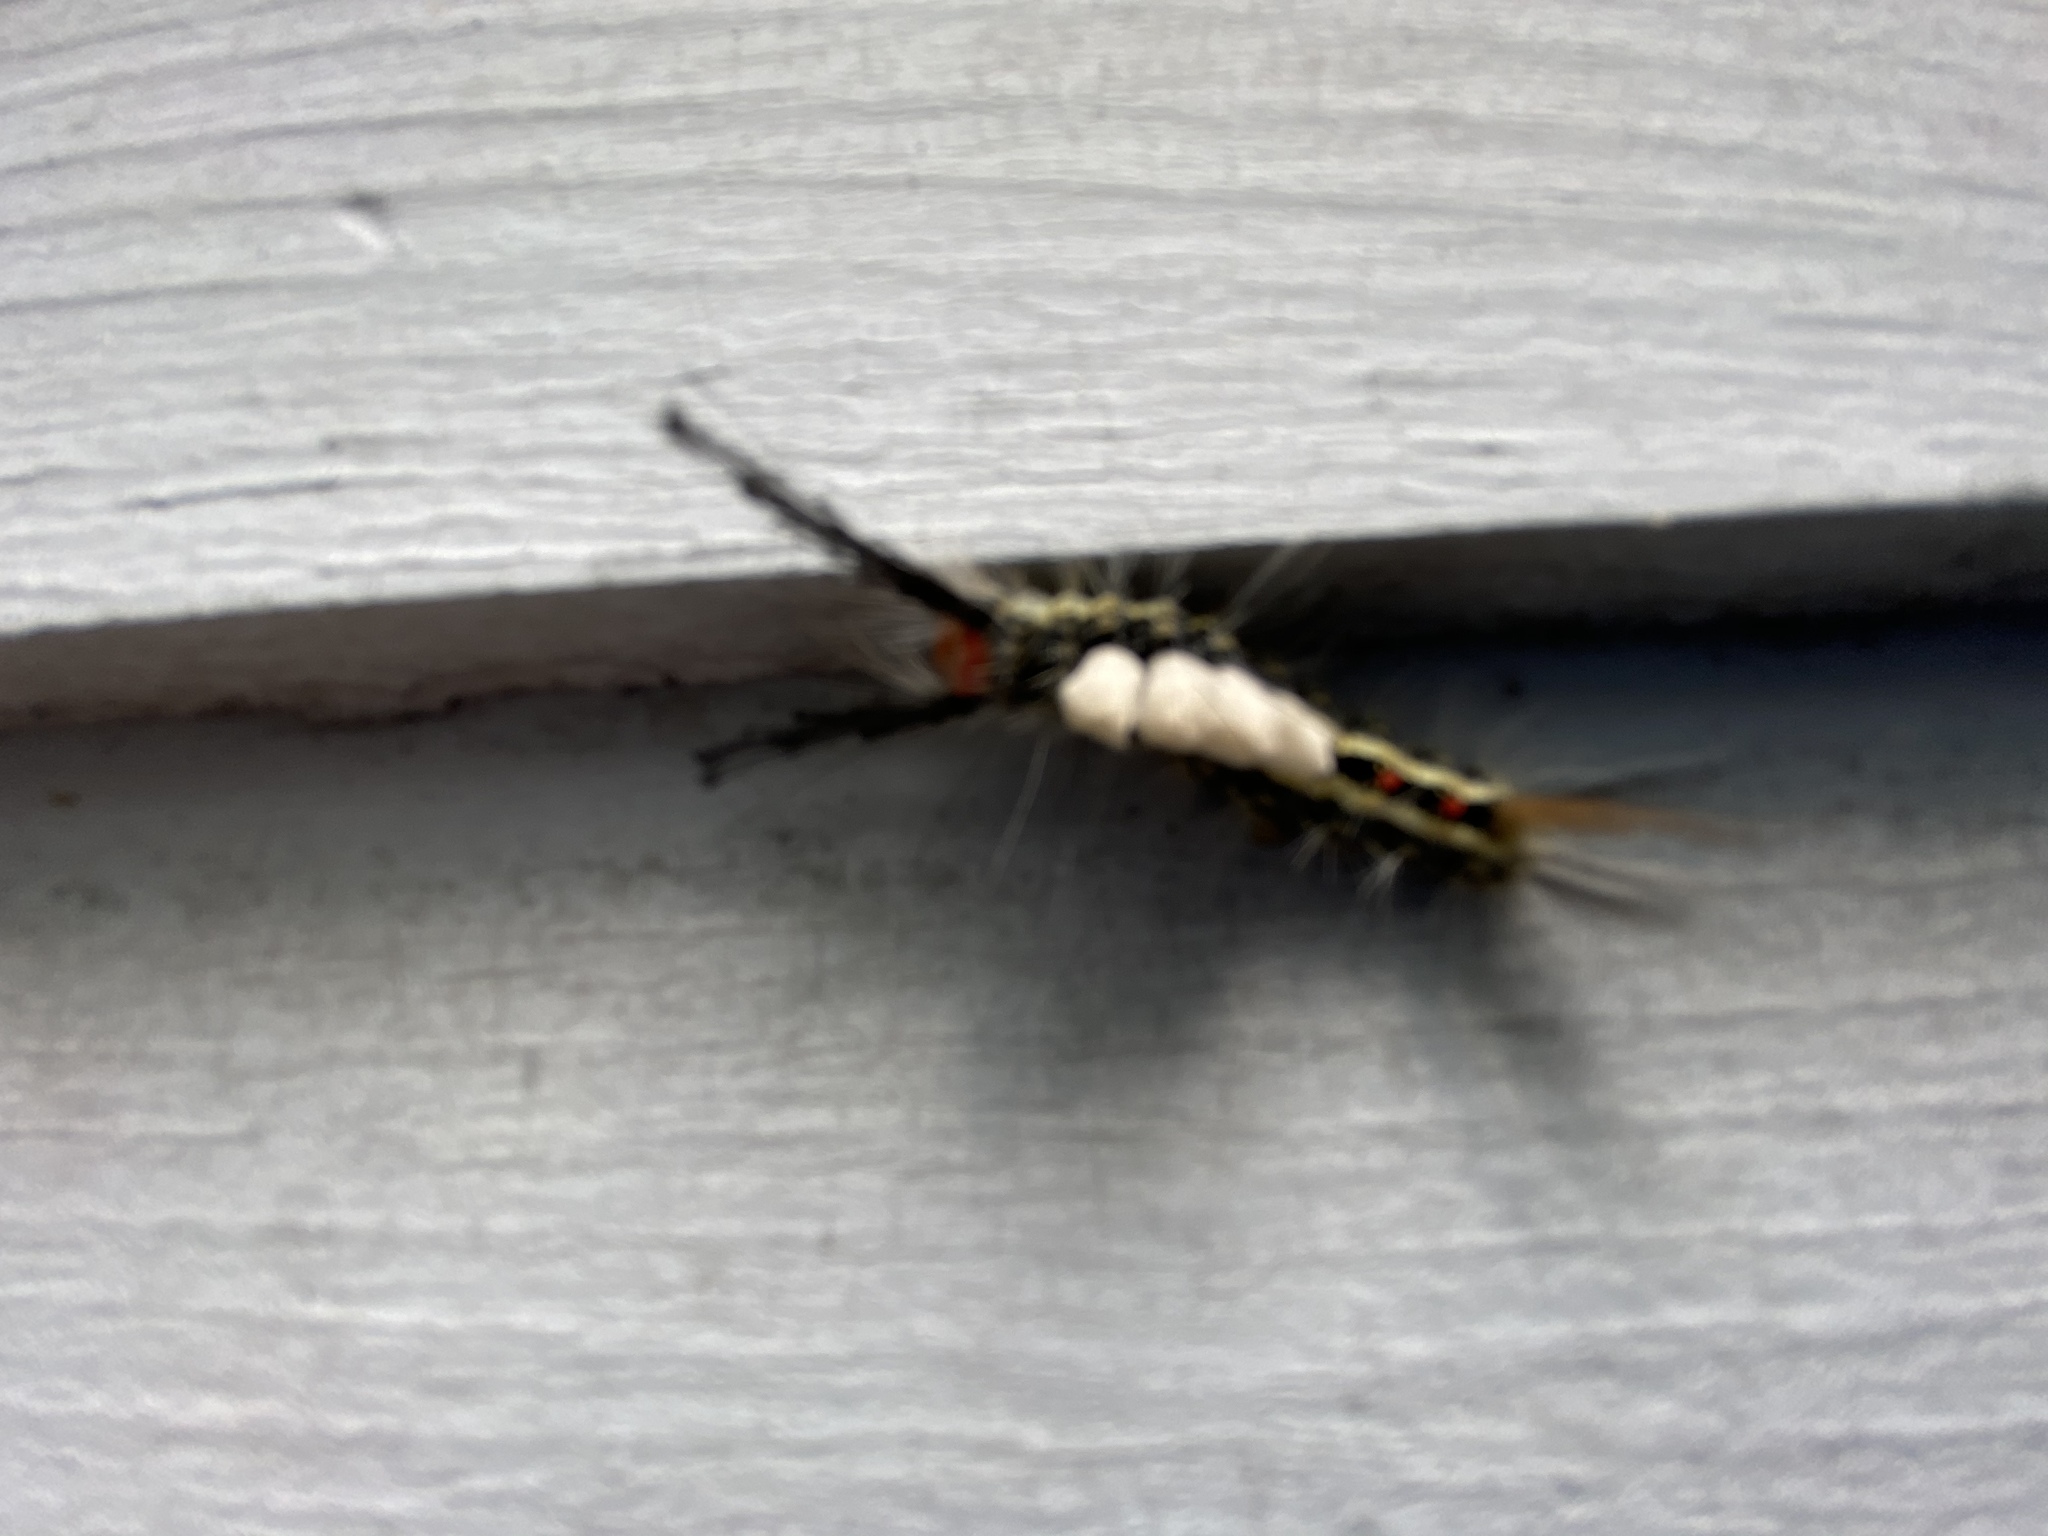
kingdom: Animalia
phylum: Arthropoda
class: Insecta
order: Lepidoptera
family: Erebidae
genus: Orgyia
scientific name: Orgyia leucostigma
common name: White-marked tussock moth
